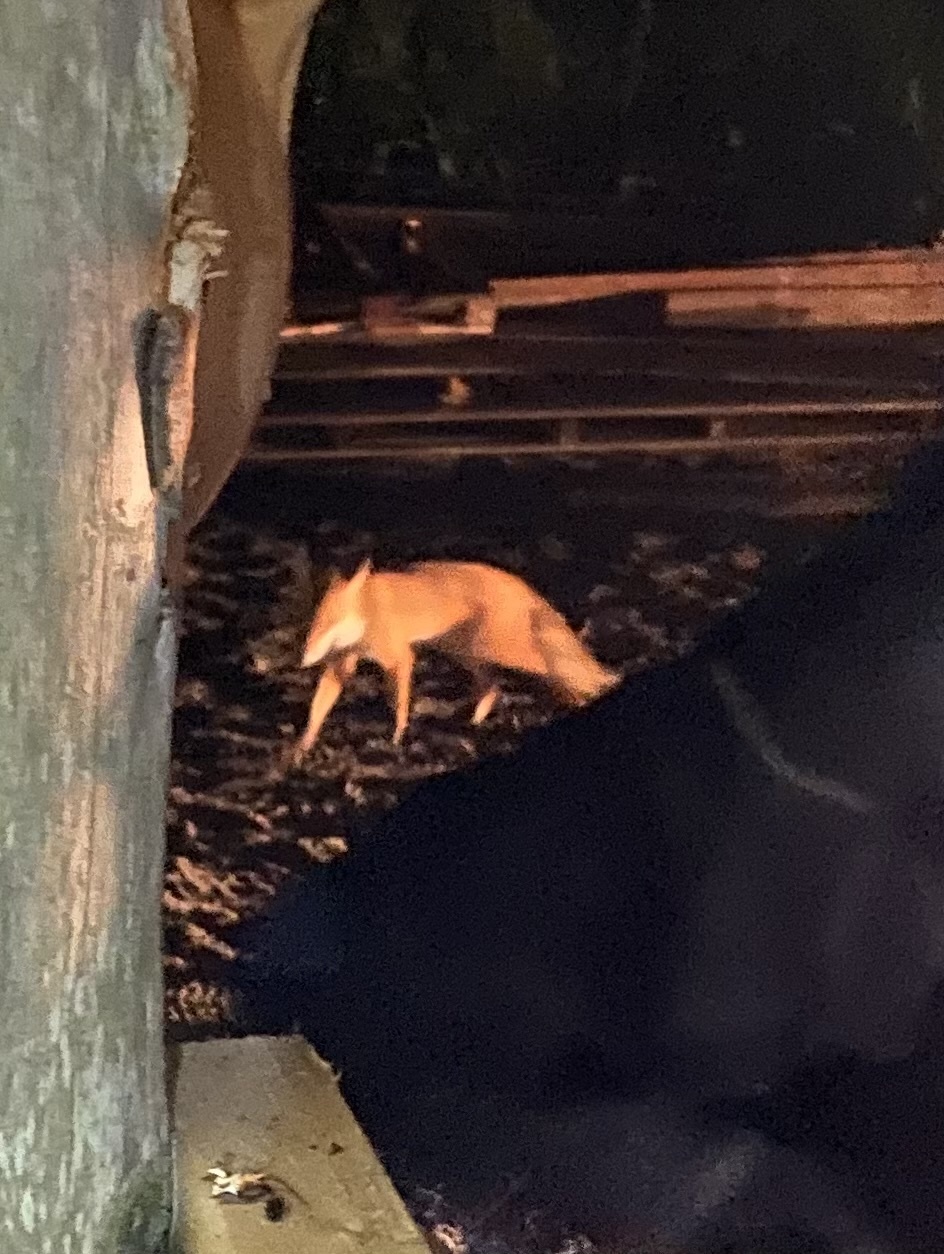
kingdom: Animalia
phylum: Chordata
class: Mammalia
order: Carnivora
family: Canidae
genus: Vulpes
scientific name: Vulpes vulpes
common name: Red fox
